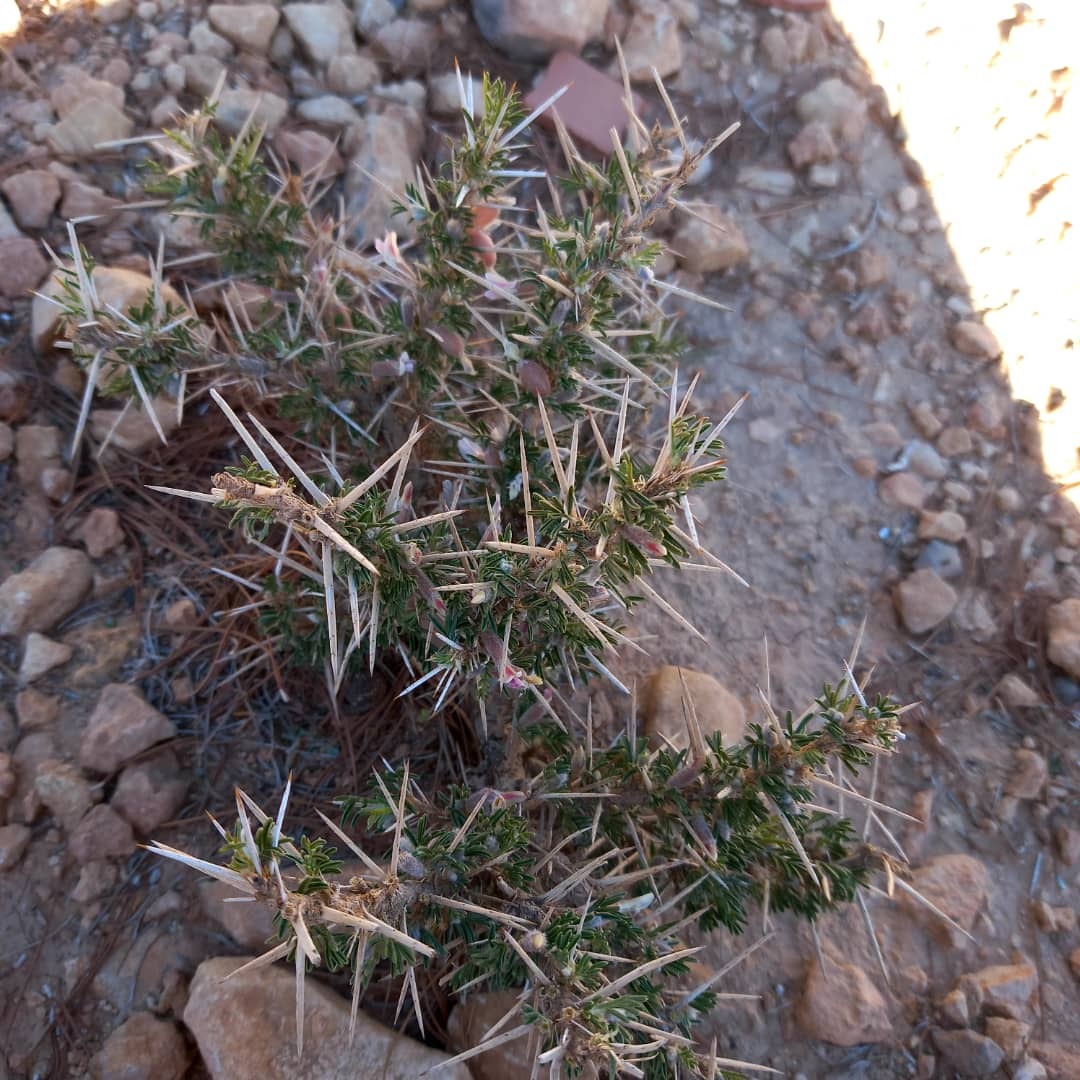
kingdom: Plantae
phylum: Tracheophyta
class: Magnoliopsida
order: Fabales
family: Fabaceae
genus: Astragalus
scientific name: Astragalus armatus
